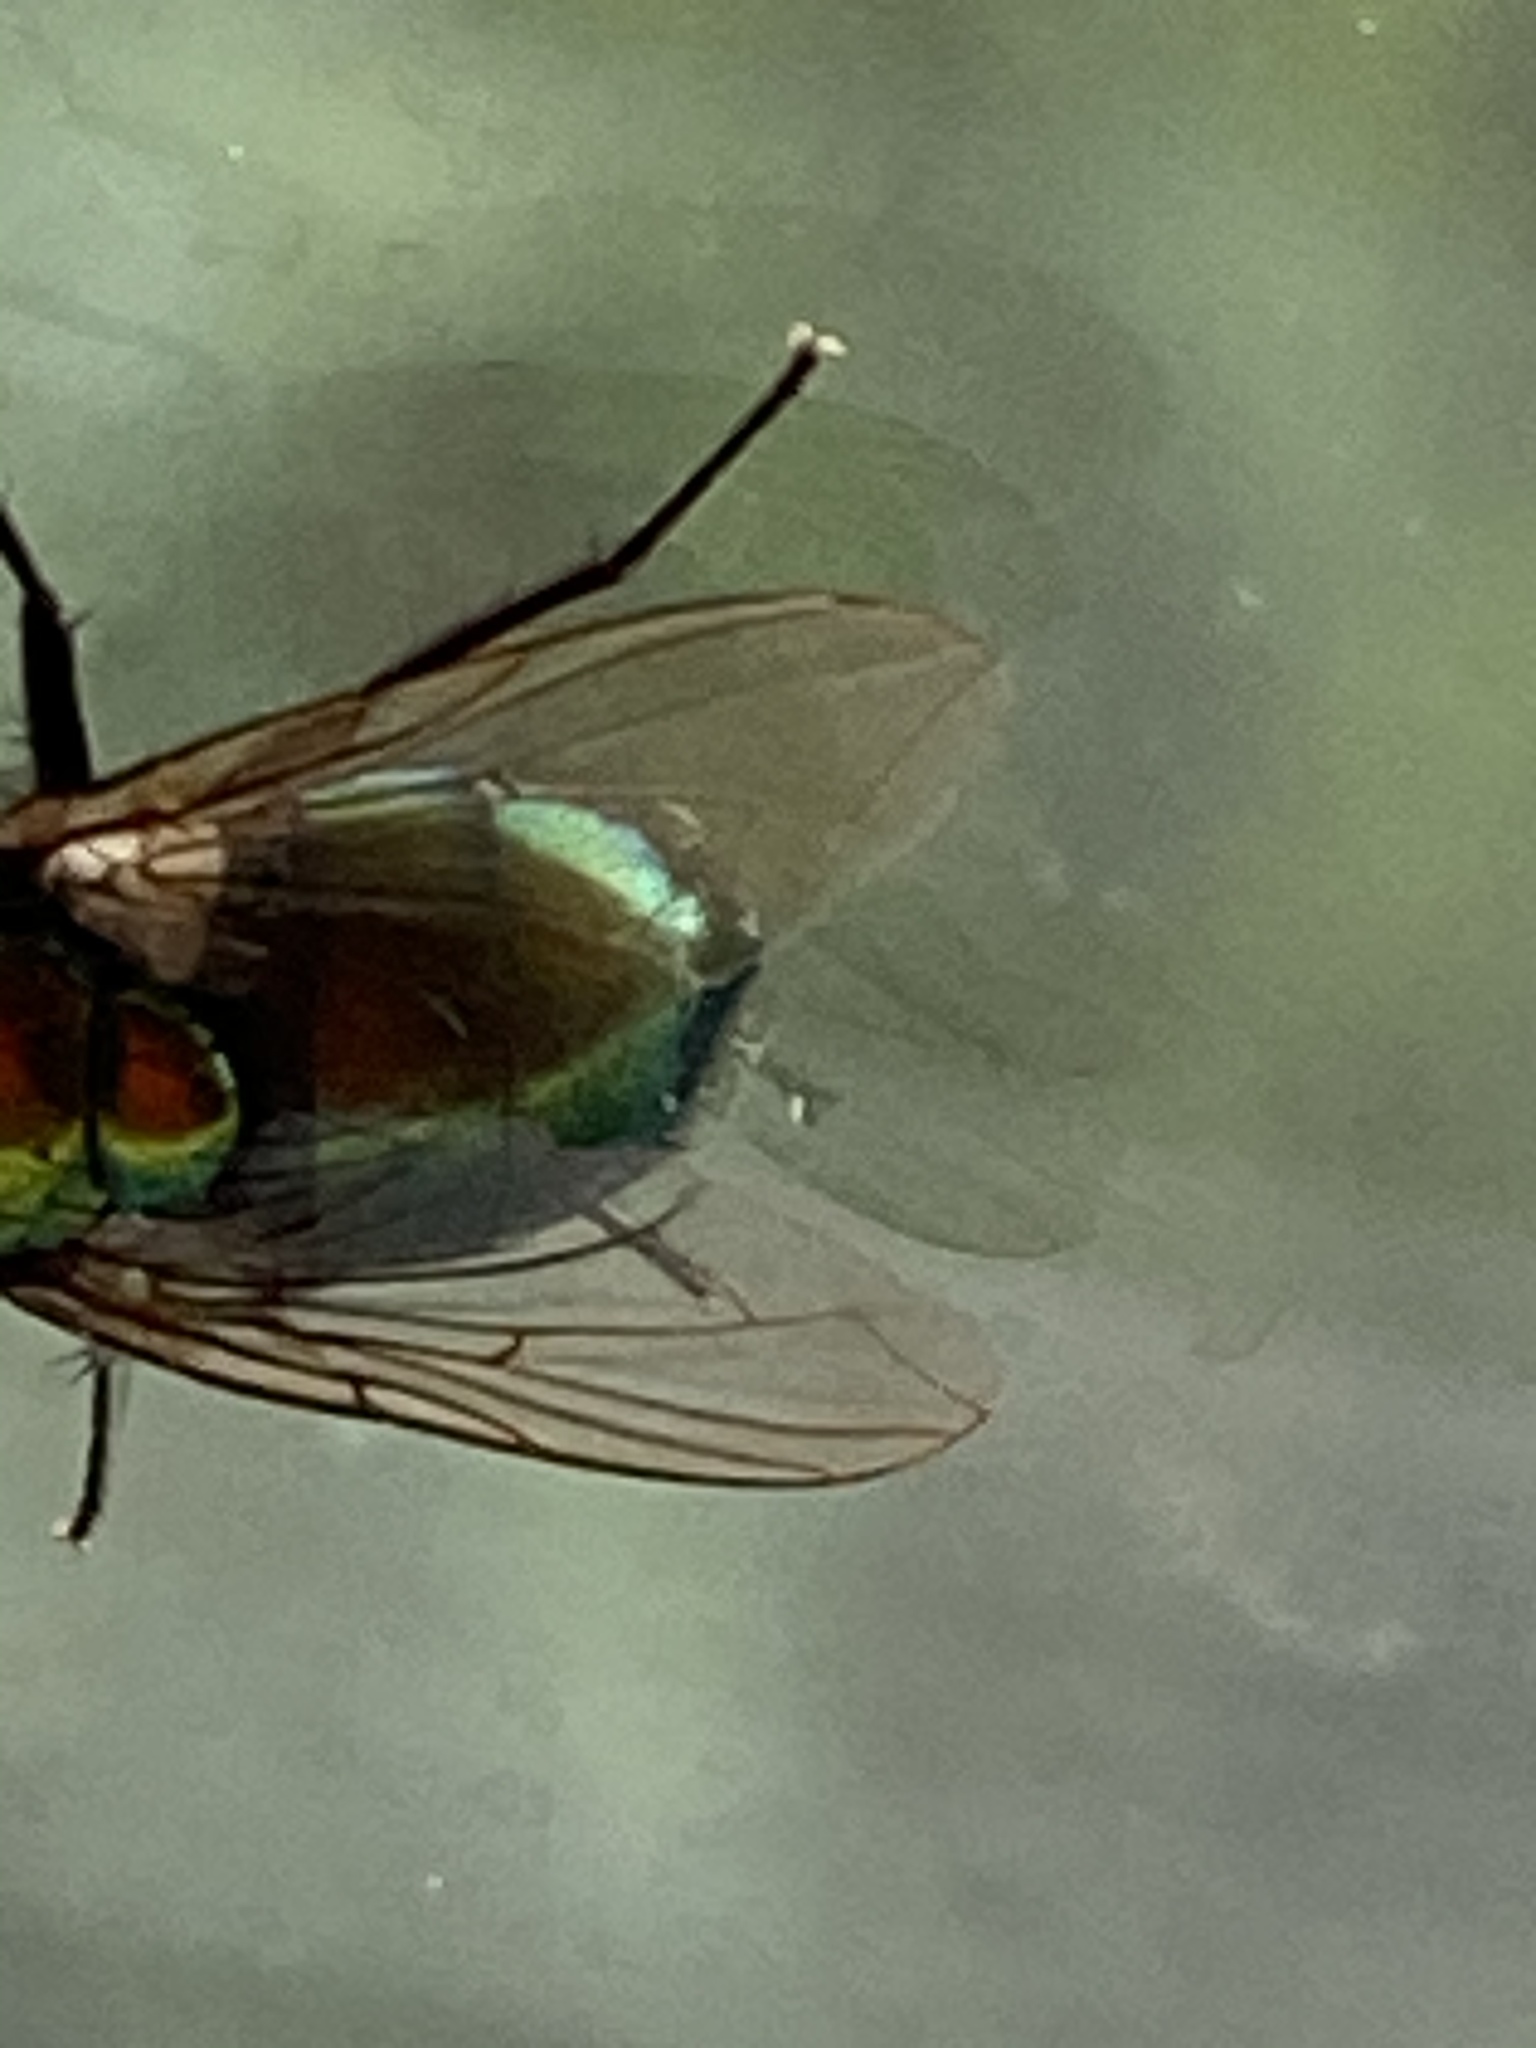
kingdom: Animalia
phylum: Arthropoda
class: Insecta
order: Diptera
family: Calliphoridae
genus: Lucilia
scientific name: Lucilia sericata
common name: Blow fly
